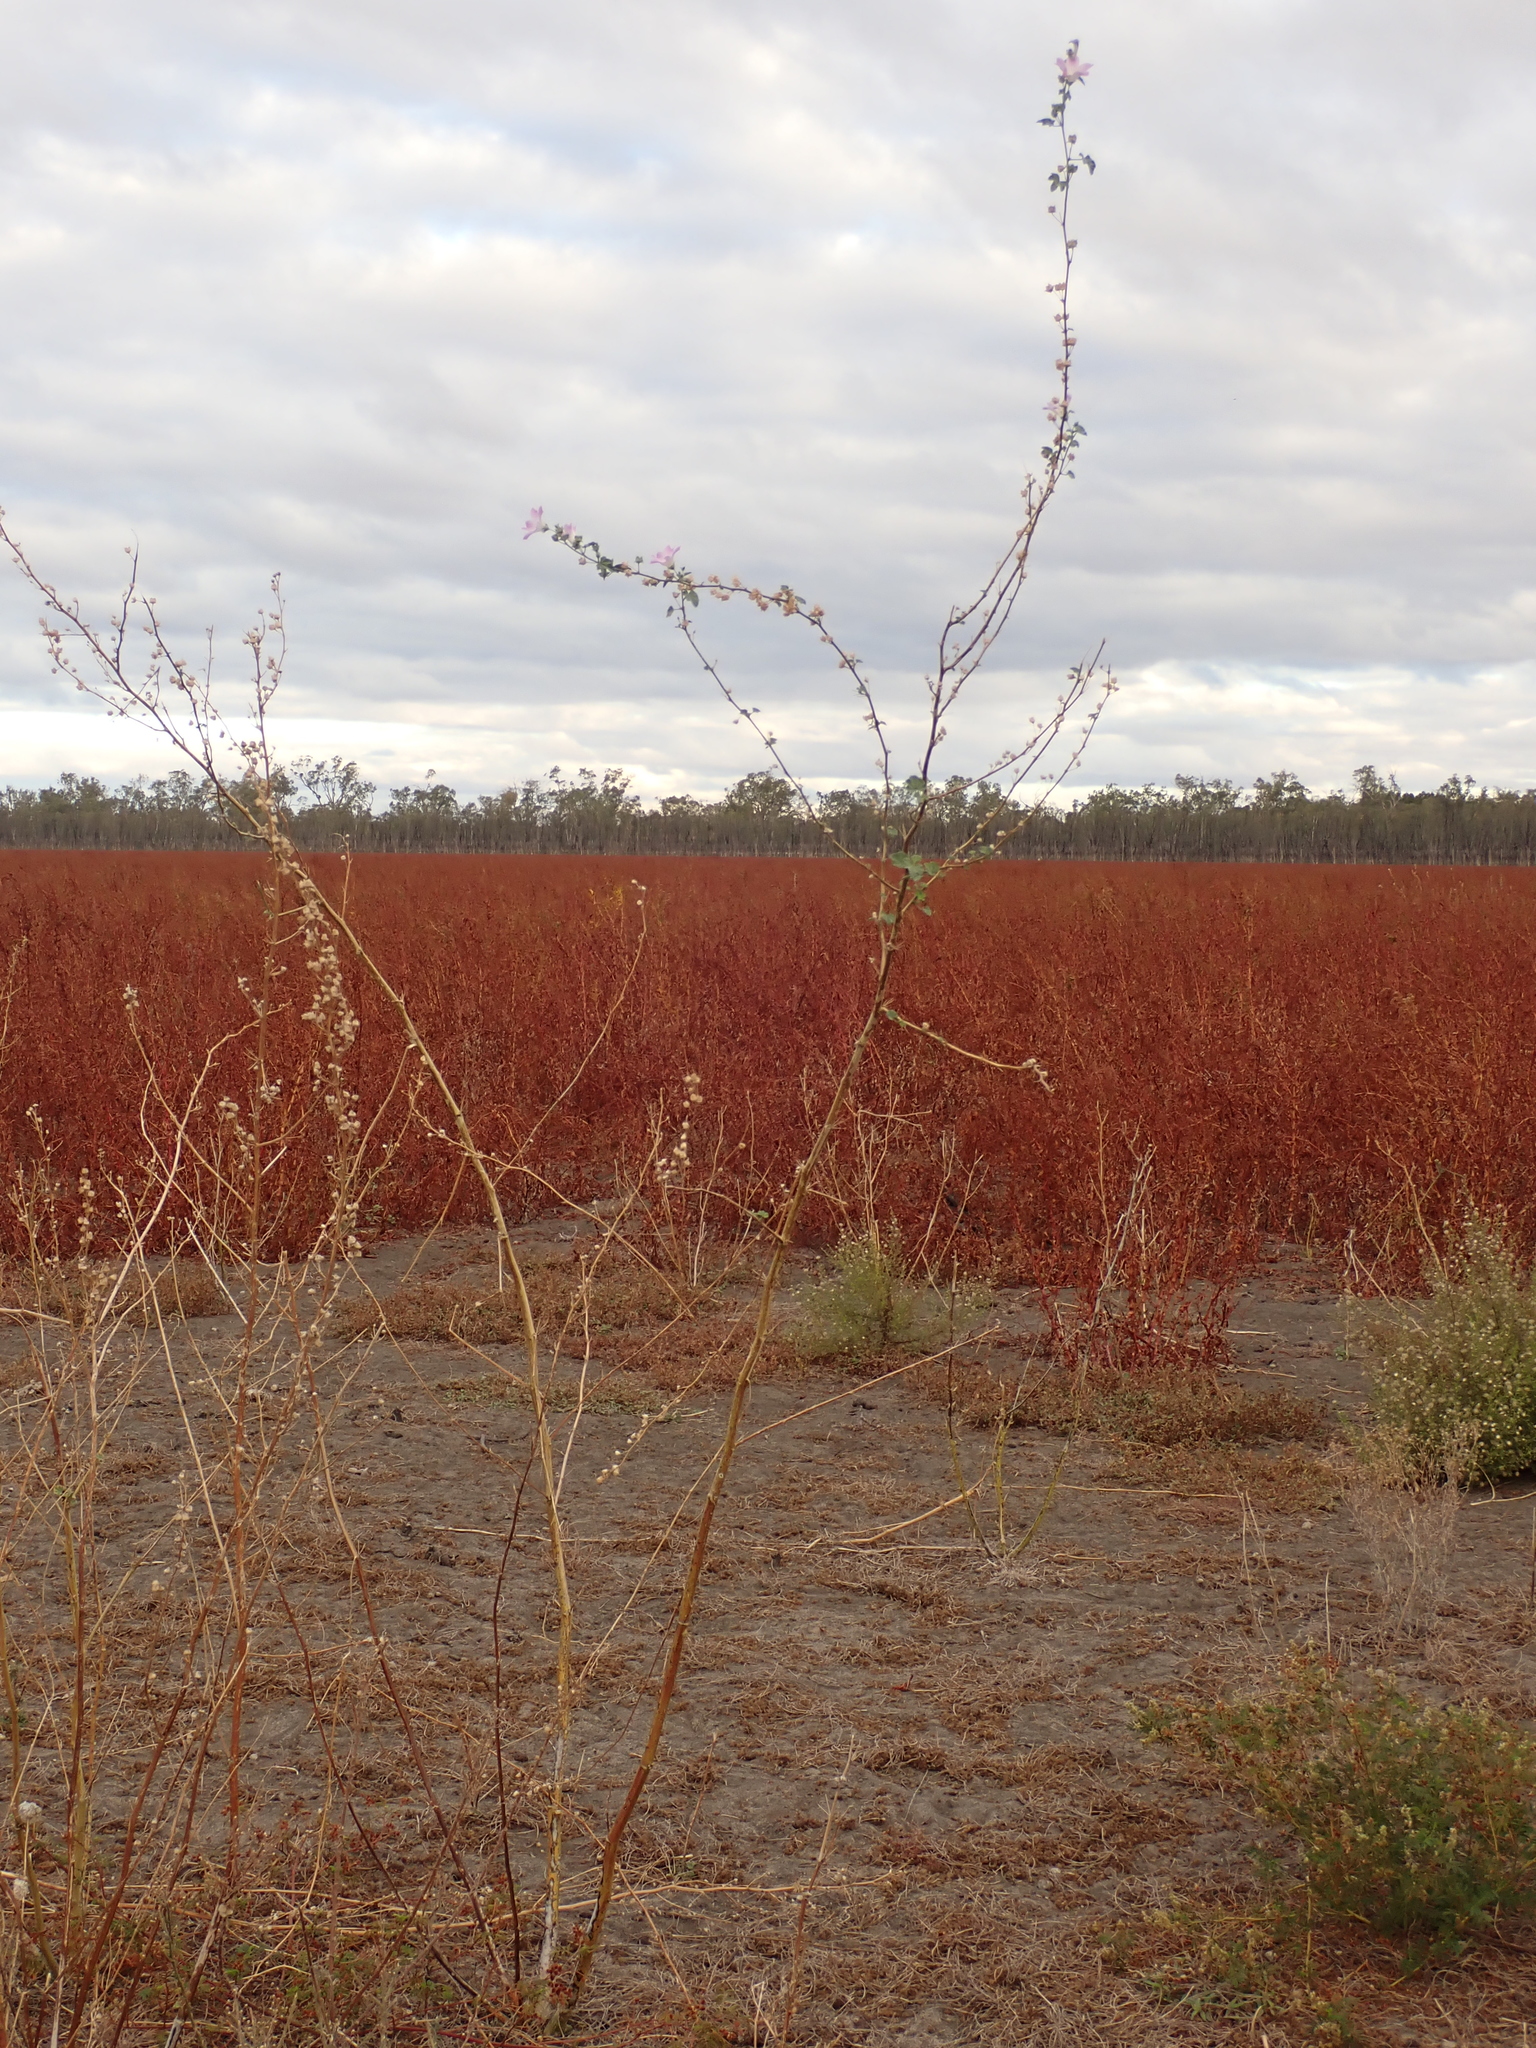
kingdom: Plantae
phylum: Tracheophyta
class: Magnoliopsida
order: Malvales
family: Malvaceae
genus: Malva
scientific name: Malva weinmanniana
